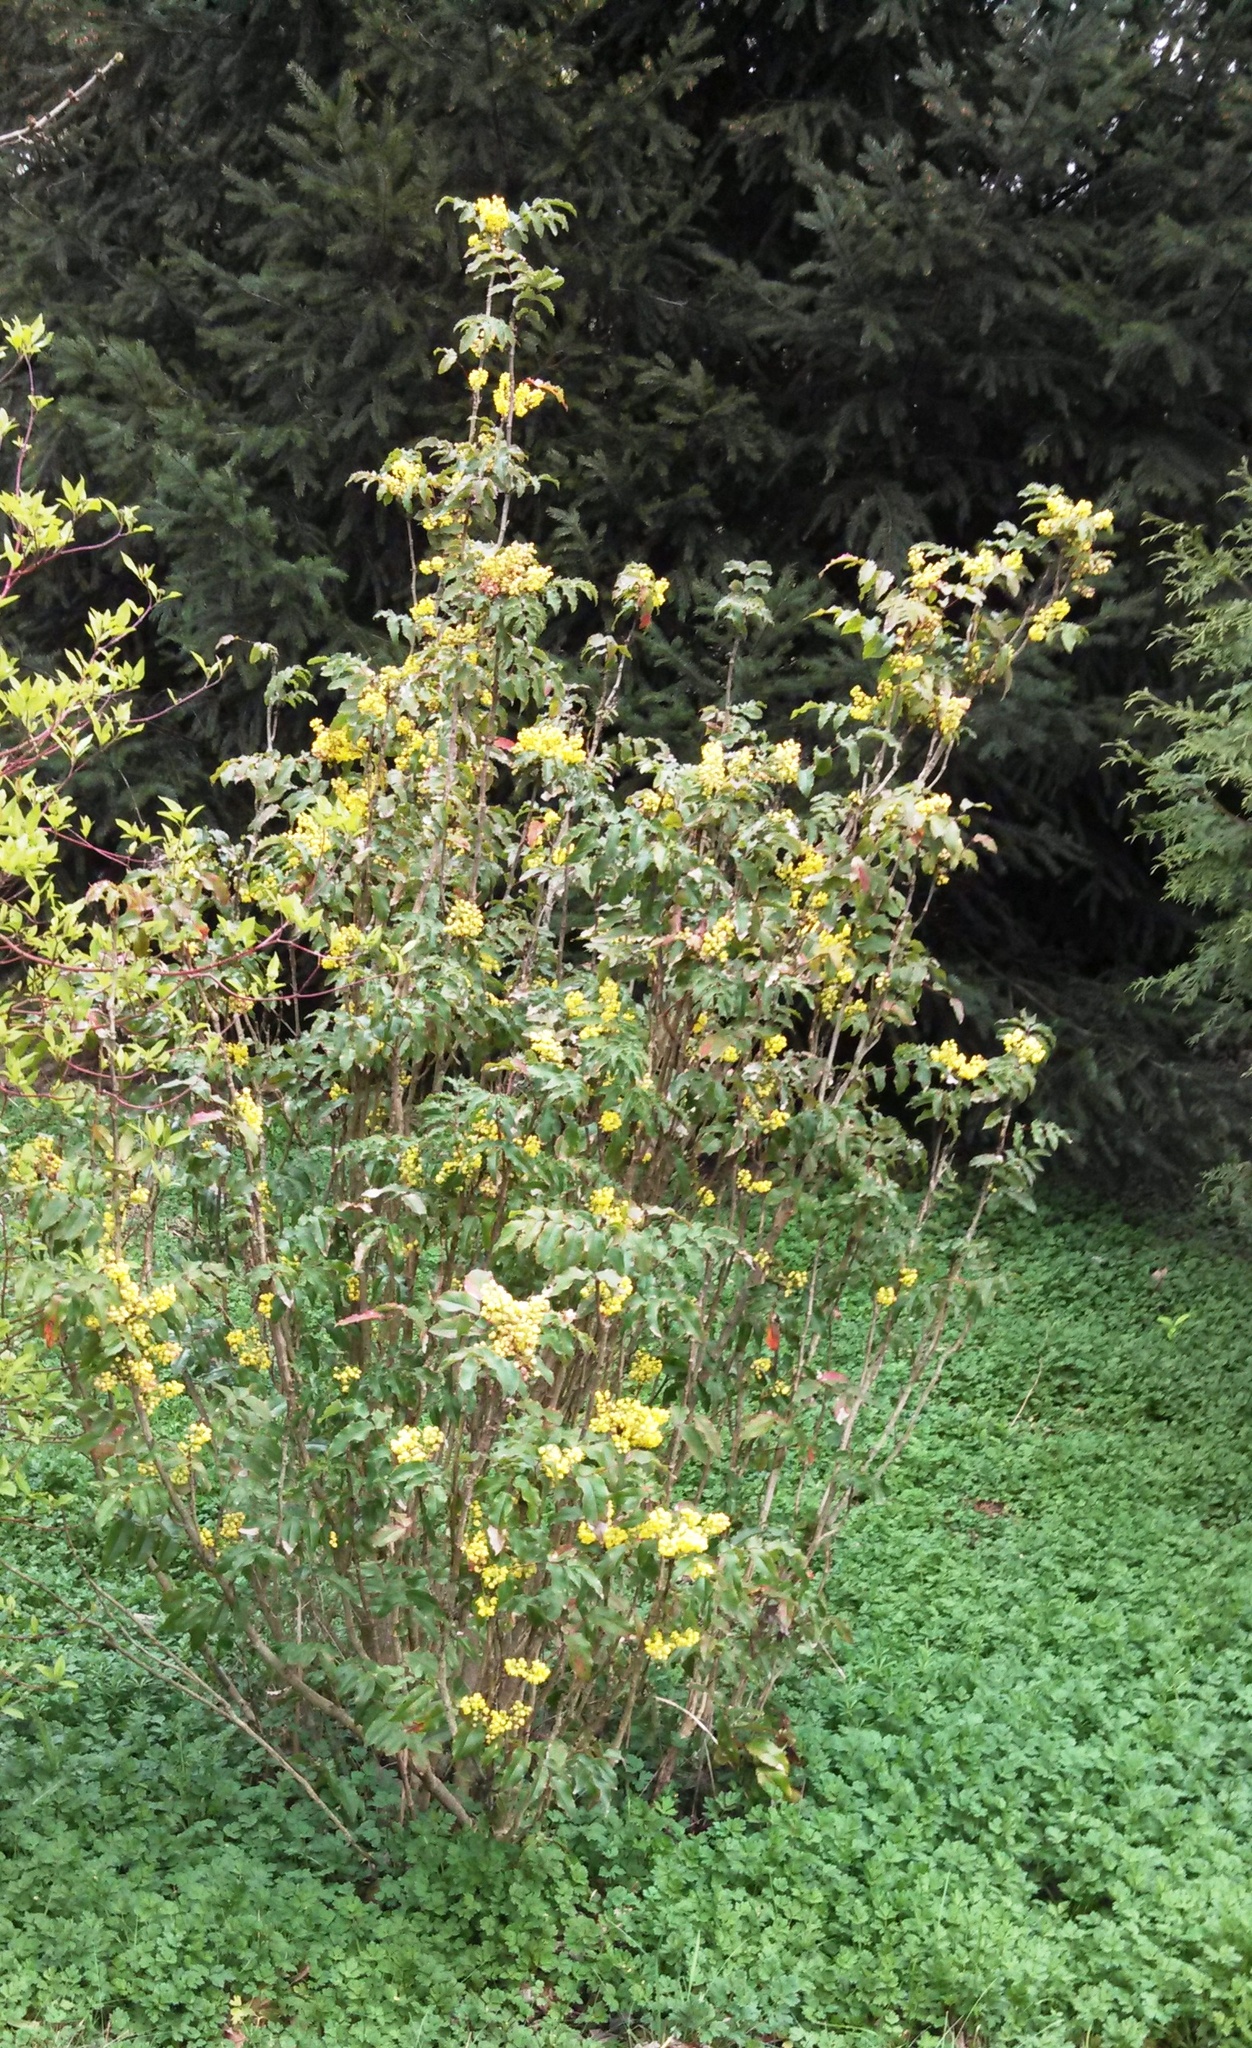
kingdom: Plantae
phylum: Tracheophyta
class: Magnoliopsida
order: Ranunculales
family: Berberidaceae
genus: Mahonia
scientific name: Mahonia aquifolium
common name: Oregon-grape
